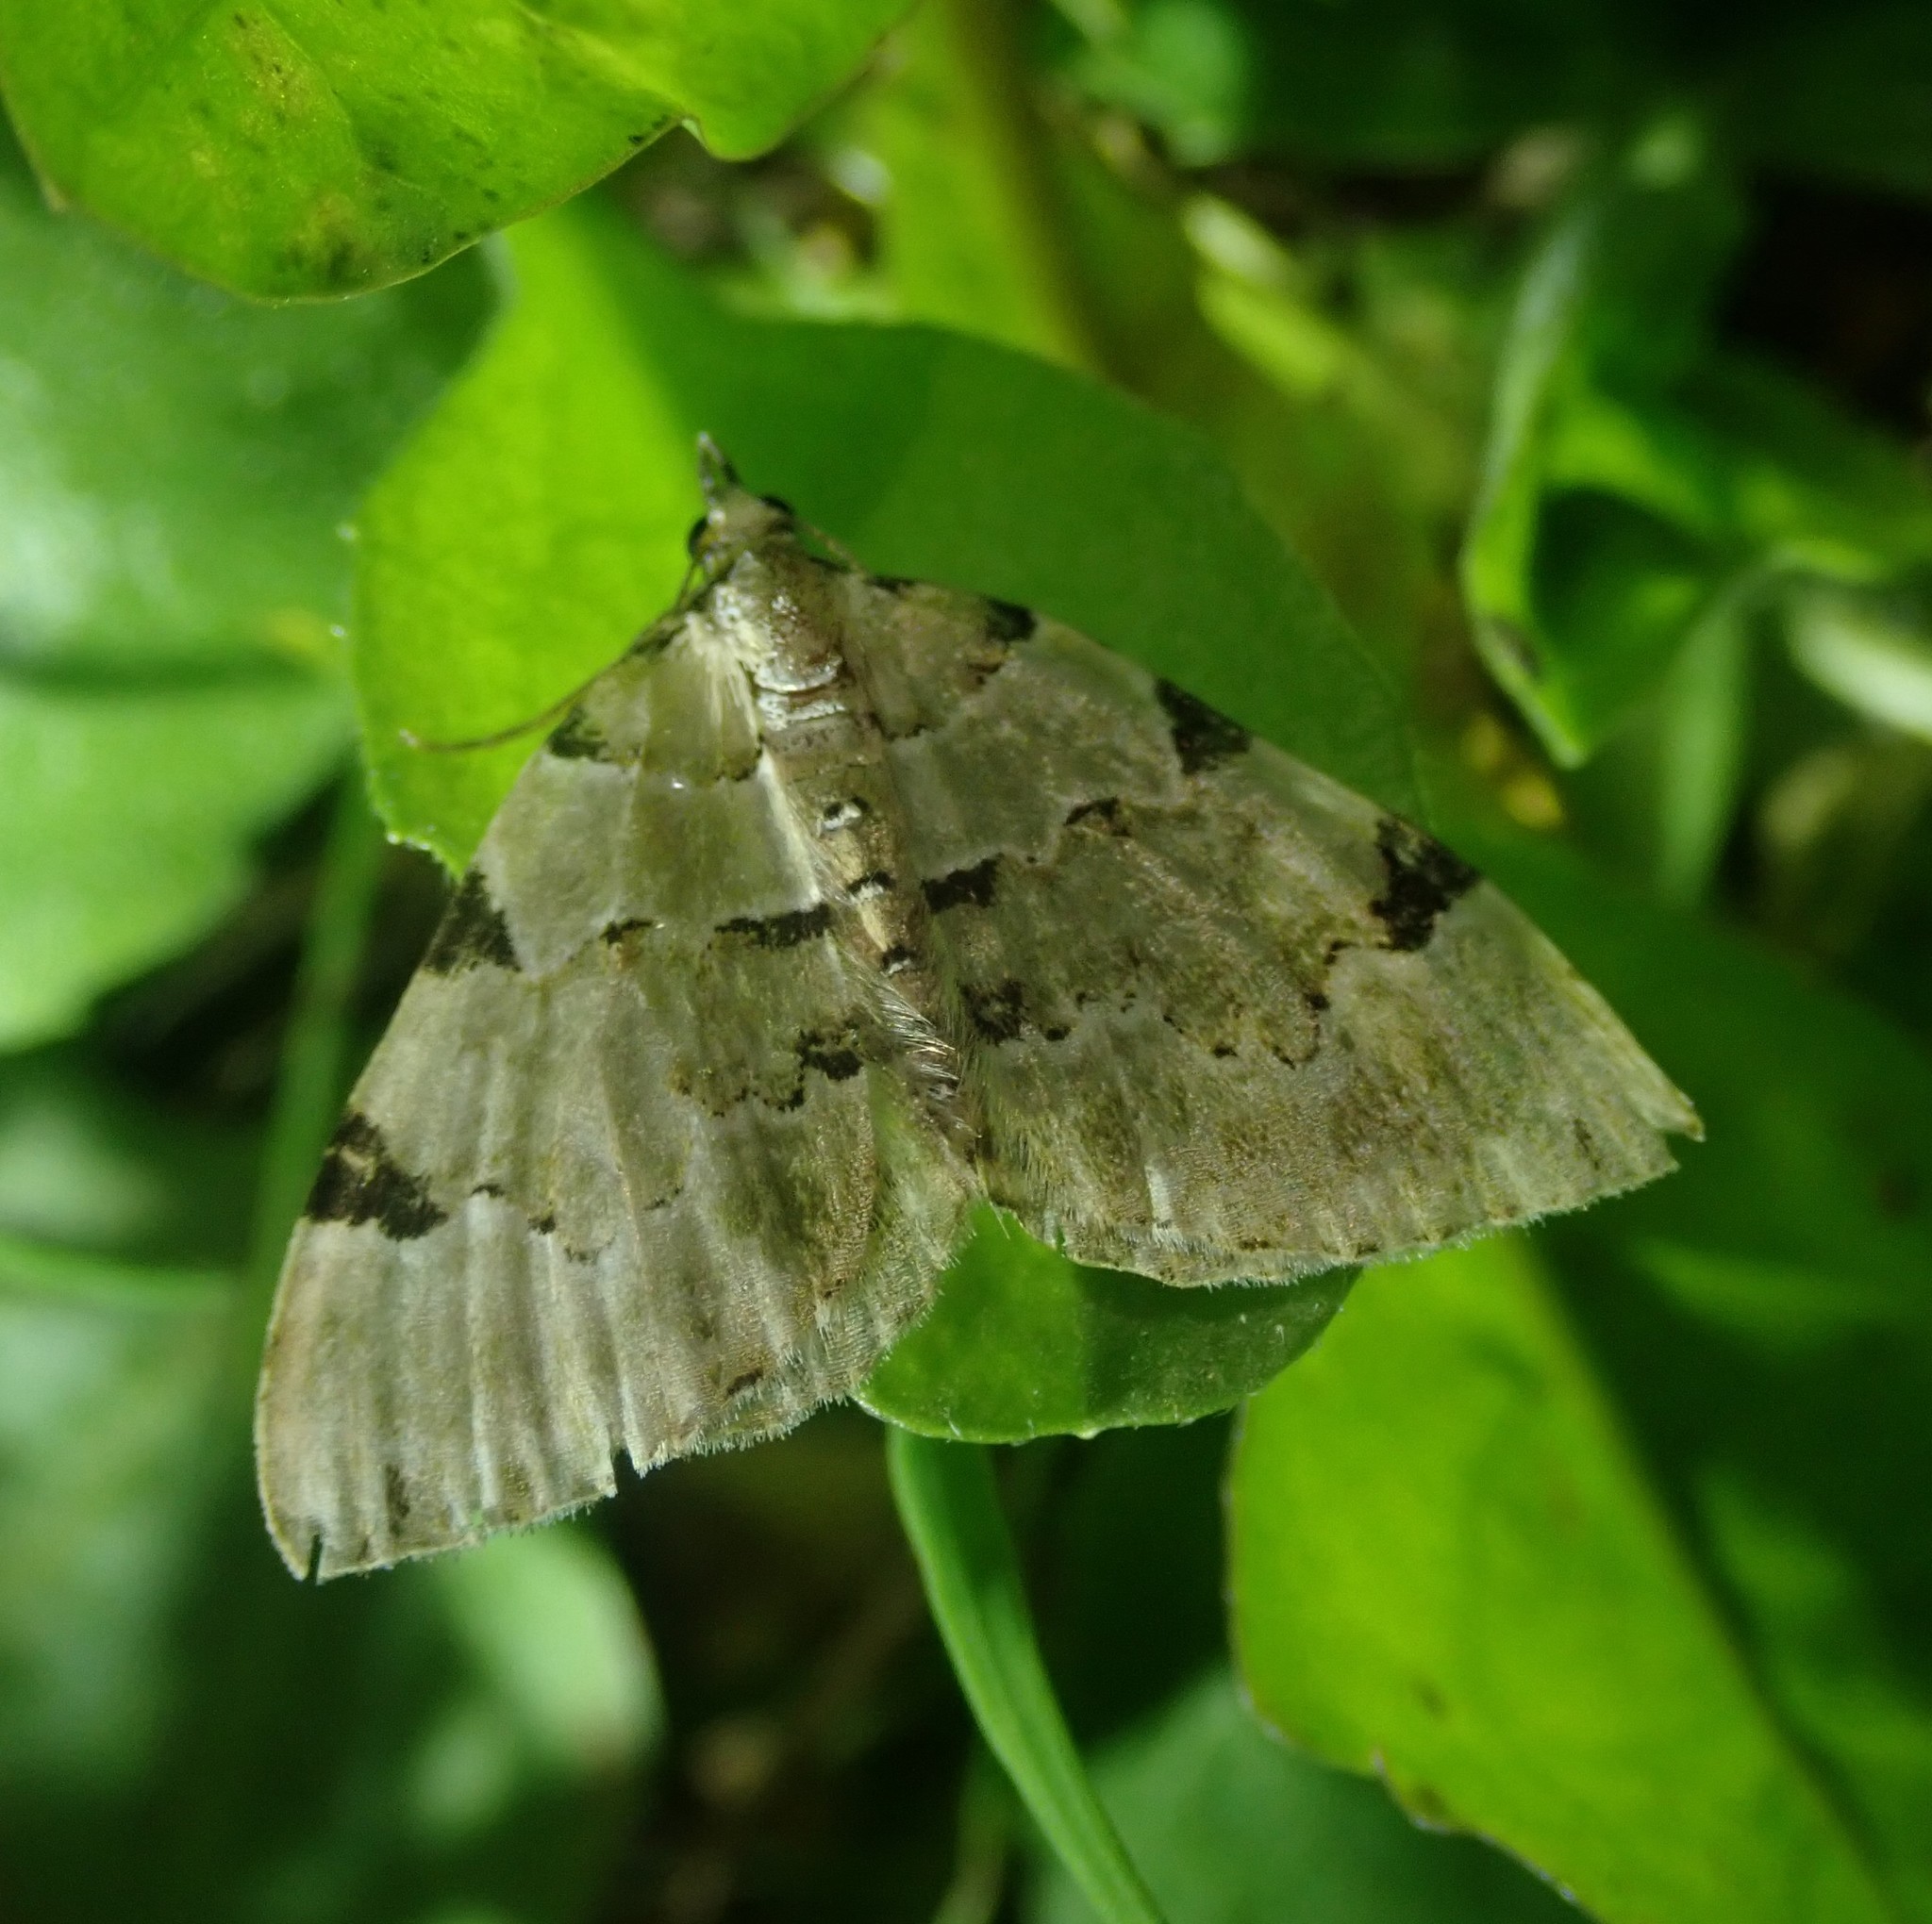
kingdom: Animalia
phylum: Arthropoda
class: Insecta
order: Lepidoptera
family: Geometridae
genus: Colostygia
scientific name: Colostygia pectinataria
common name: Green carpet
